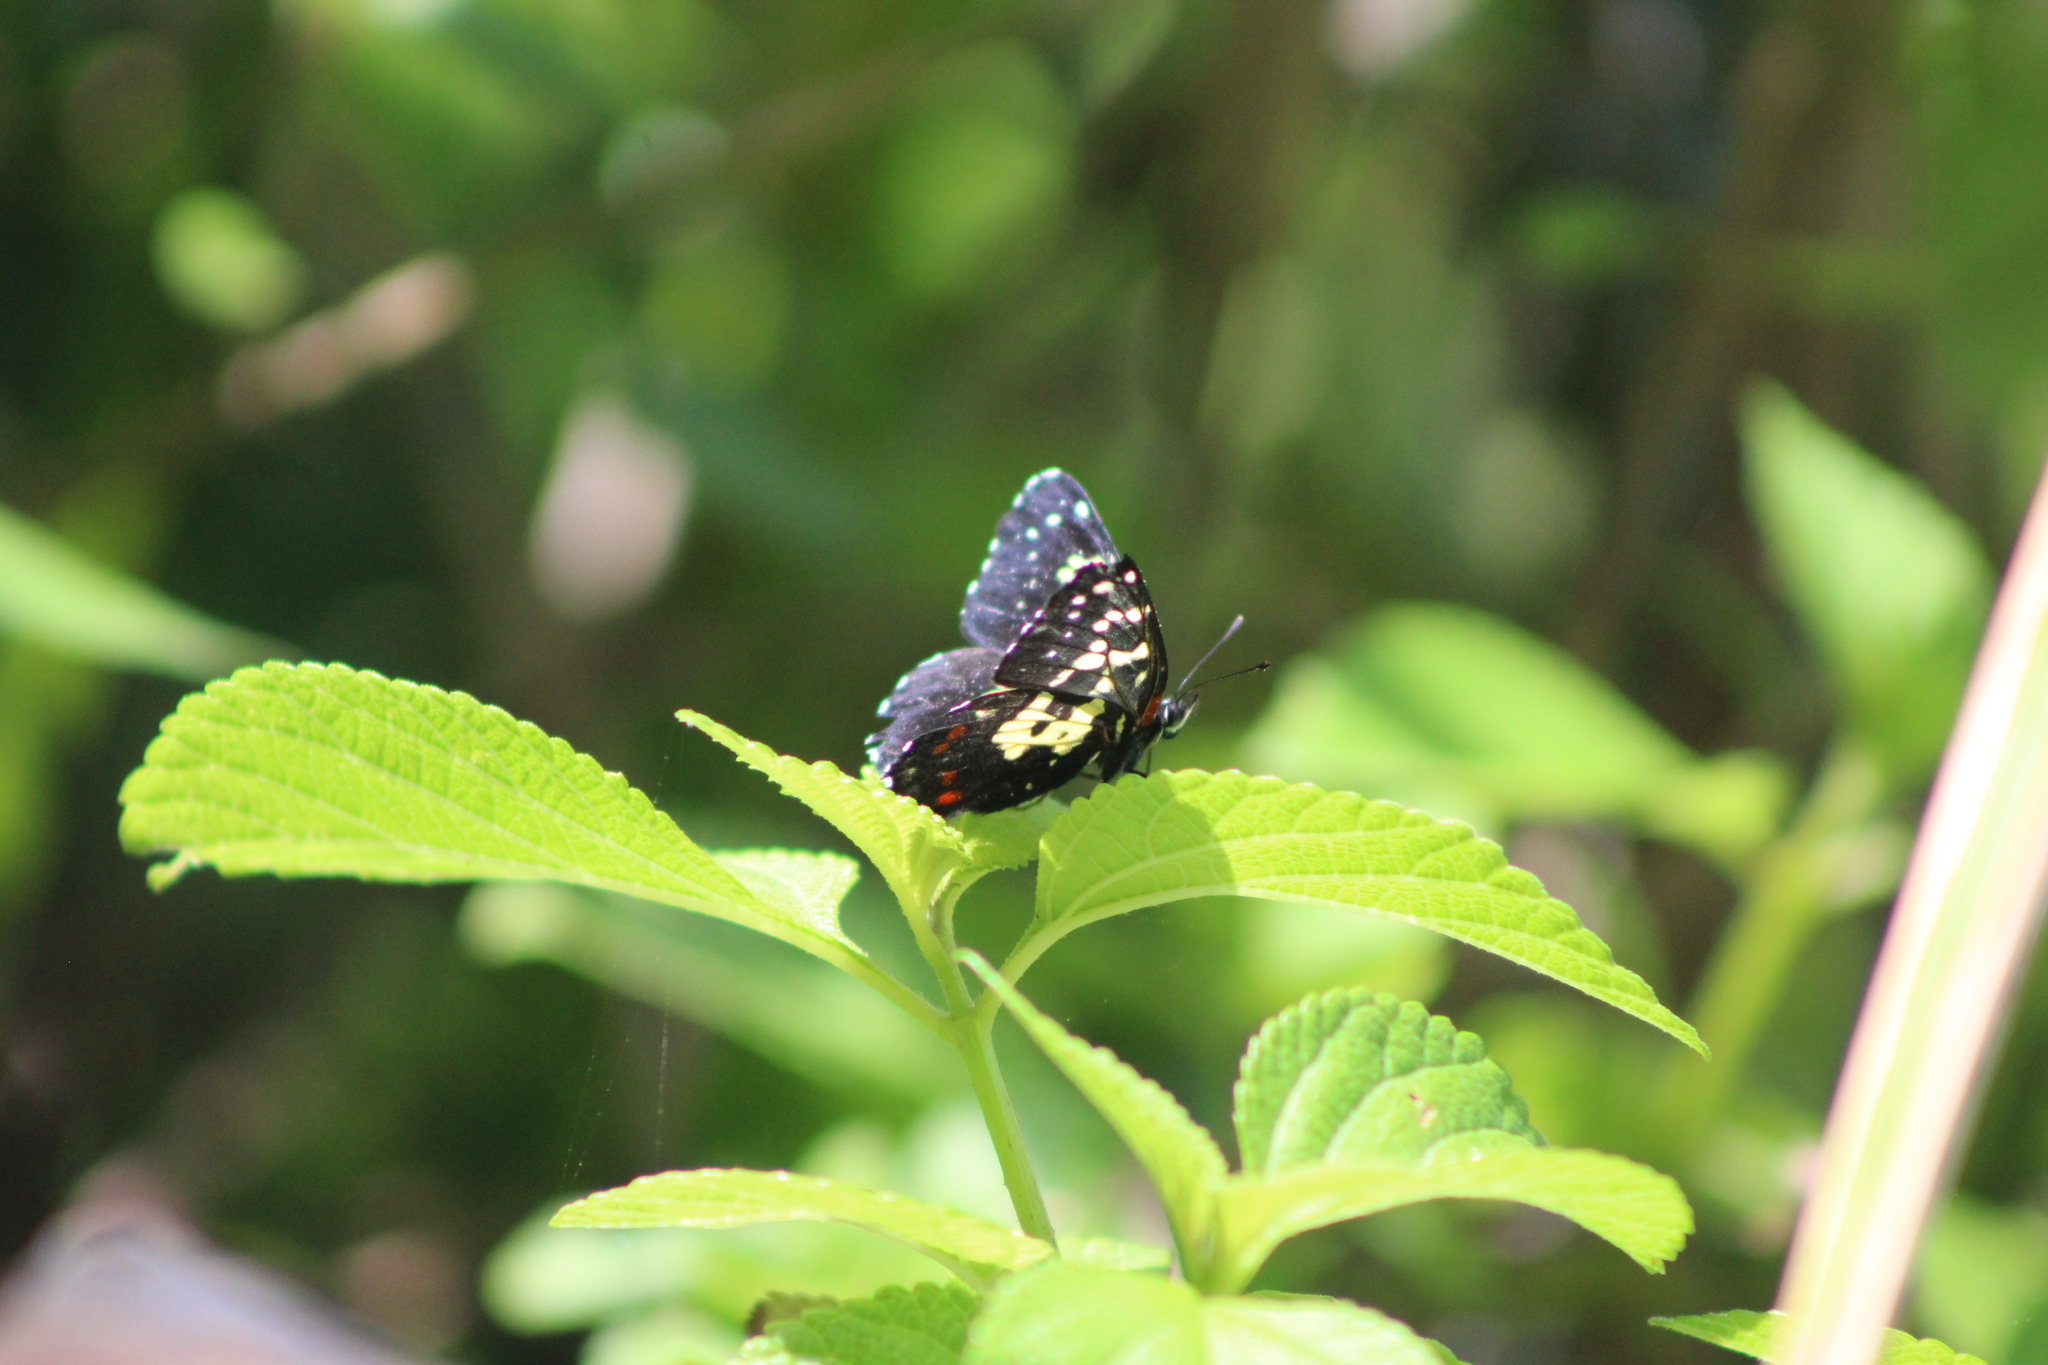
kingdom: Animalia
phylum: Arthropoda
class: Insecta
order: Lepidoptera
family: Nymphalidae
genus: Chlosyne
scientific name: Chlosyne poecile
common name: Poecile checkerspot
